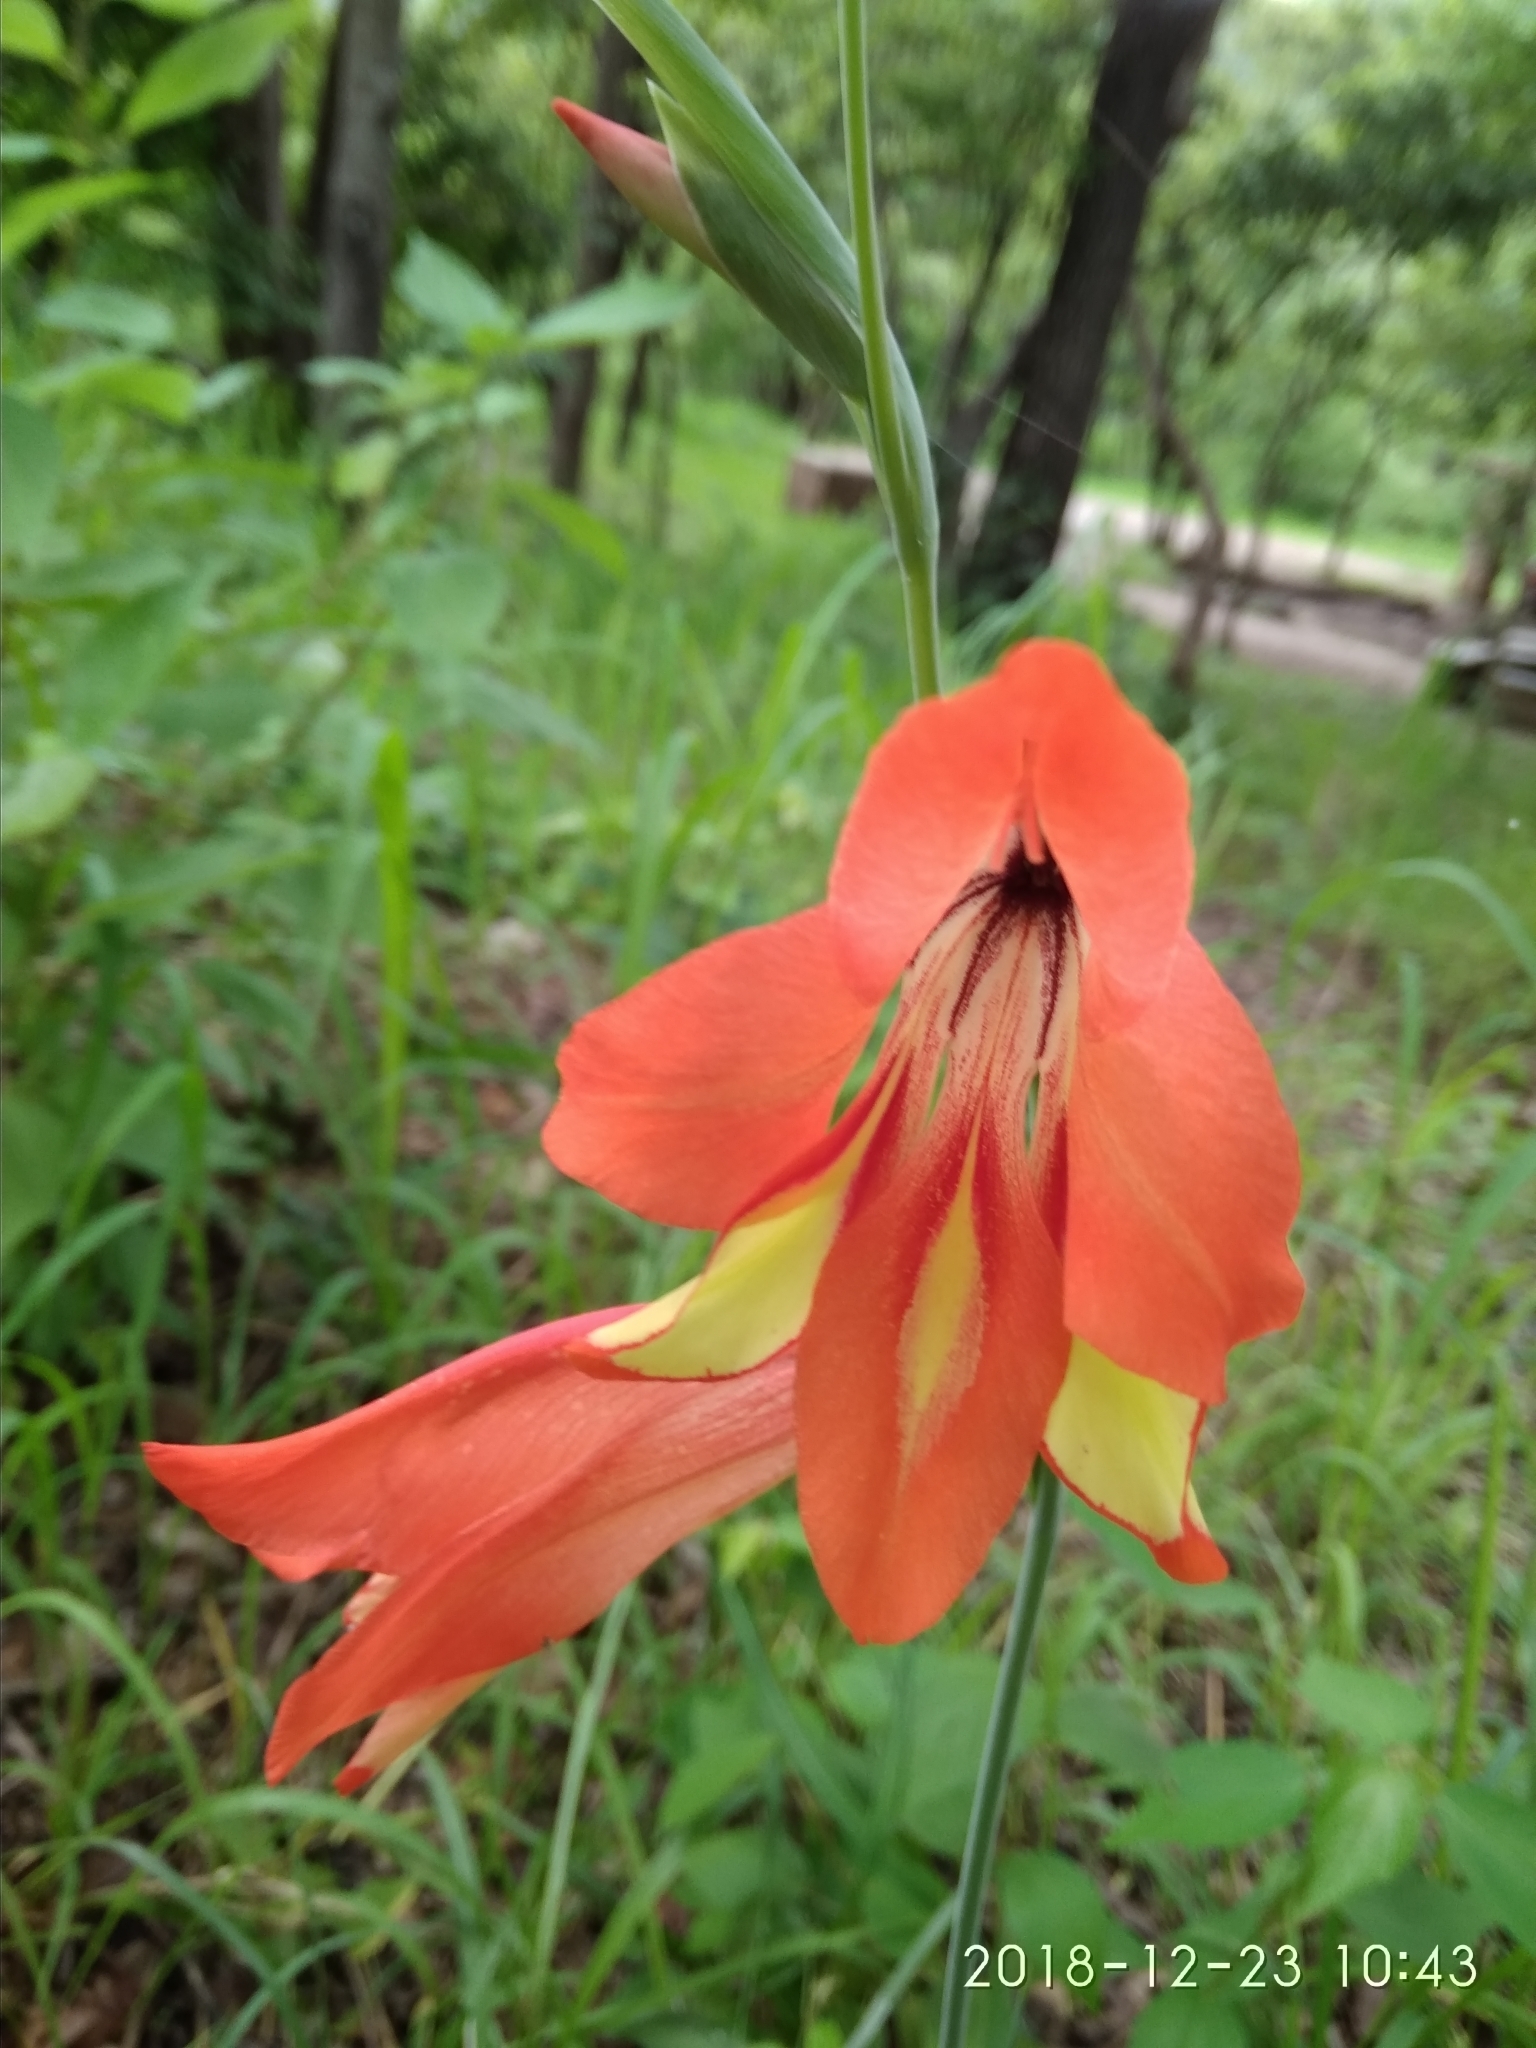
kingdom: Plantae
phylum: Tracheophyta
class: Liliopsida
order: Asparagales
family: Iridaceae
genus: Gladiolus
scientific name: Gladiolus decoratus
